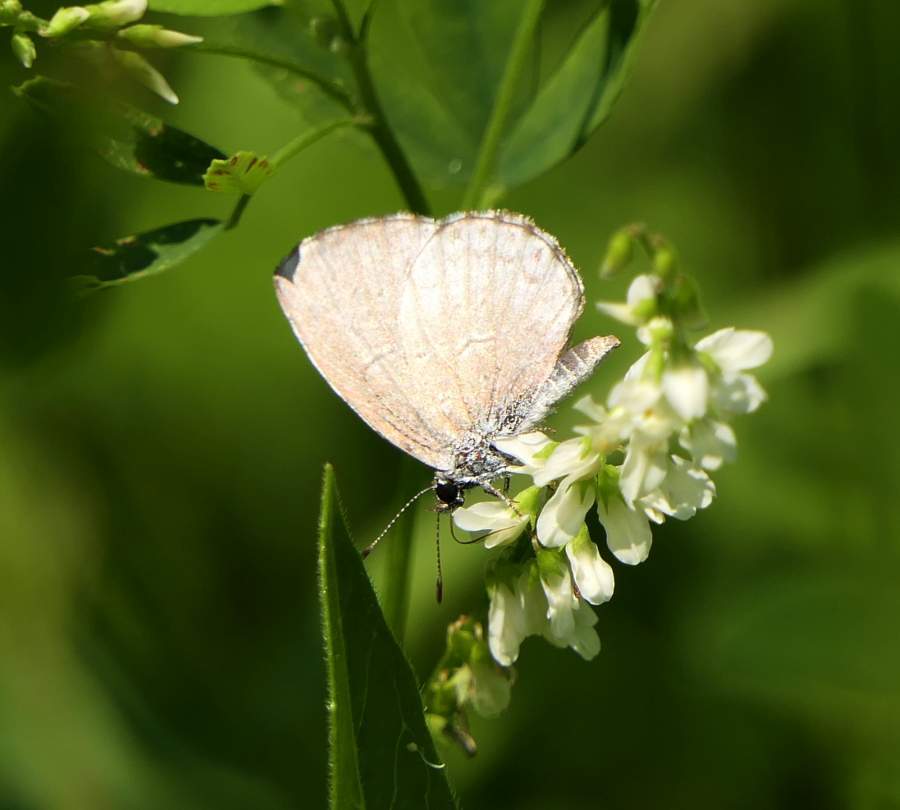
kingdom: Animalia
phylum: Arthropoda
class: Insecta
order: Lepidoptera
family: Lycaenidae
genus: Celastrina
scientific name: Celastrina lucia
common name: Lucia azure
